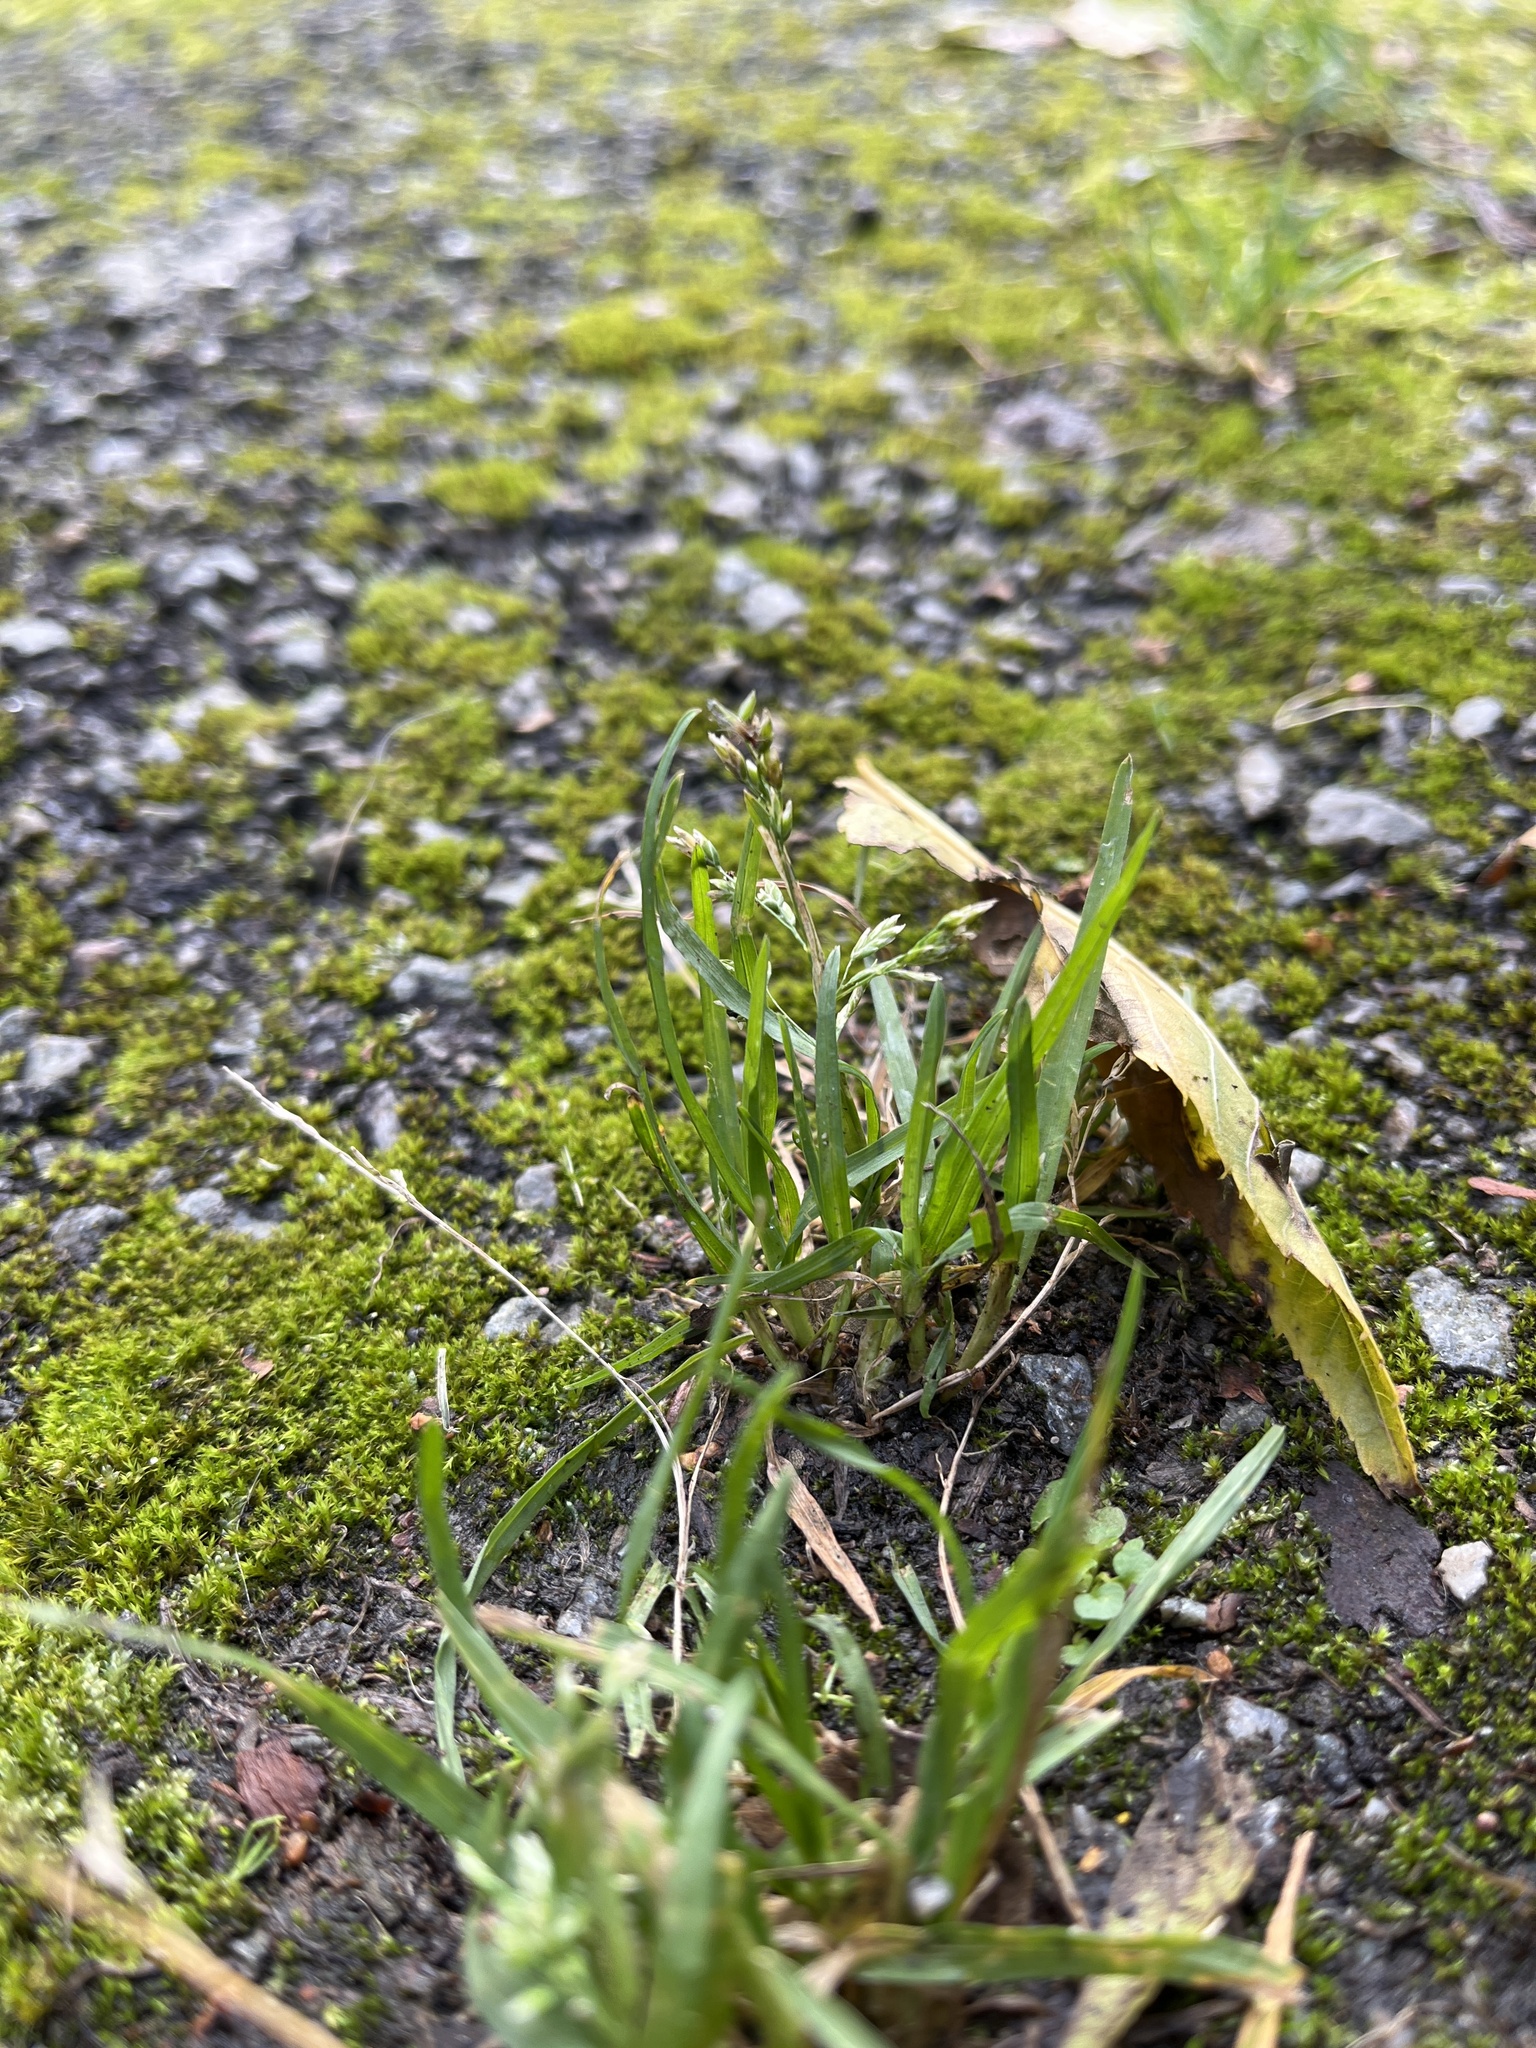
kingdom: Plantae
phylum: Tracheophyta
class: Liliopsida
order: Poales
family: Poaceae
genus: Poa
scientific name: Poa annua
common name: Annual bluegrass
